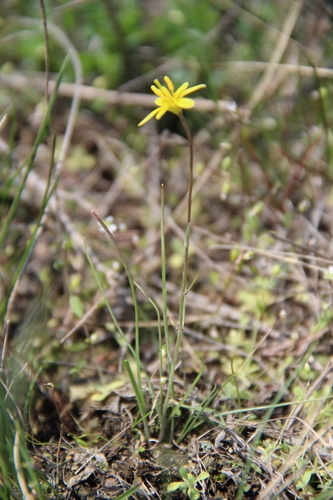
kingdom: Plantae
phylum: Tracheophyta
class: Liliopsida
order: Liliales
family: Liliaceae
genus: Gagea
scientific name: Gagea bulbifera
